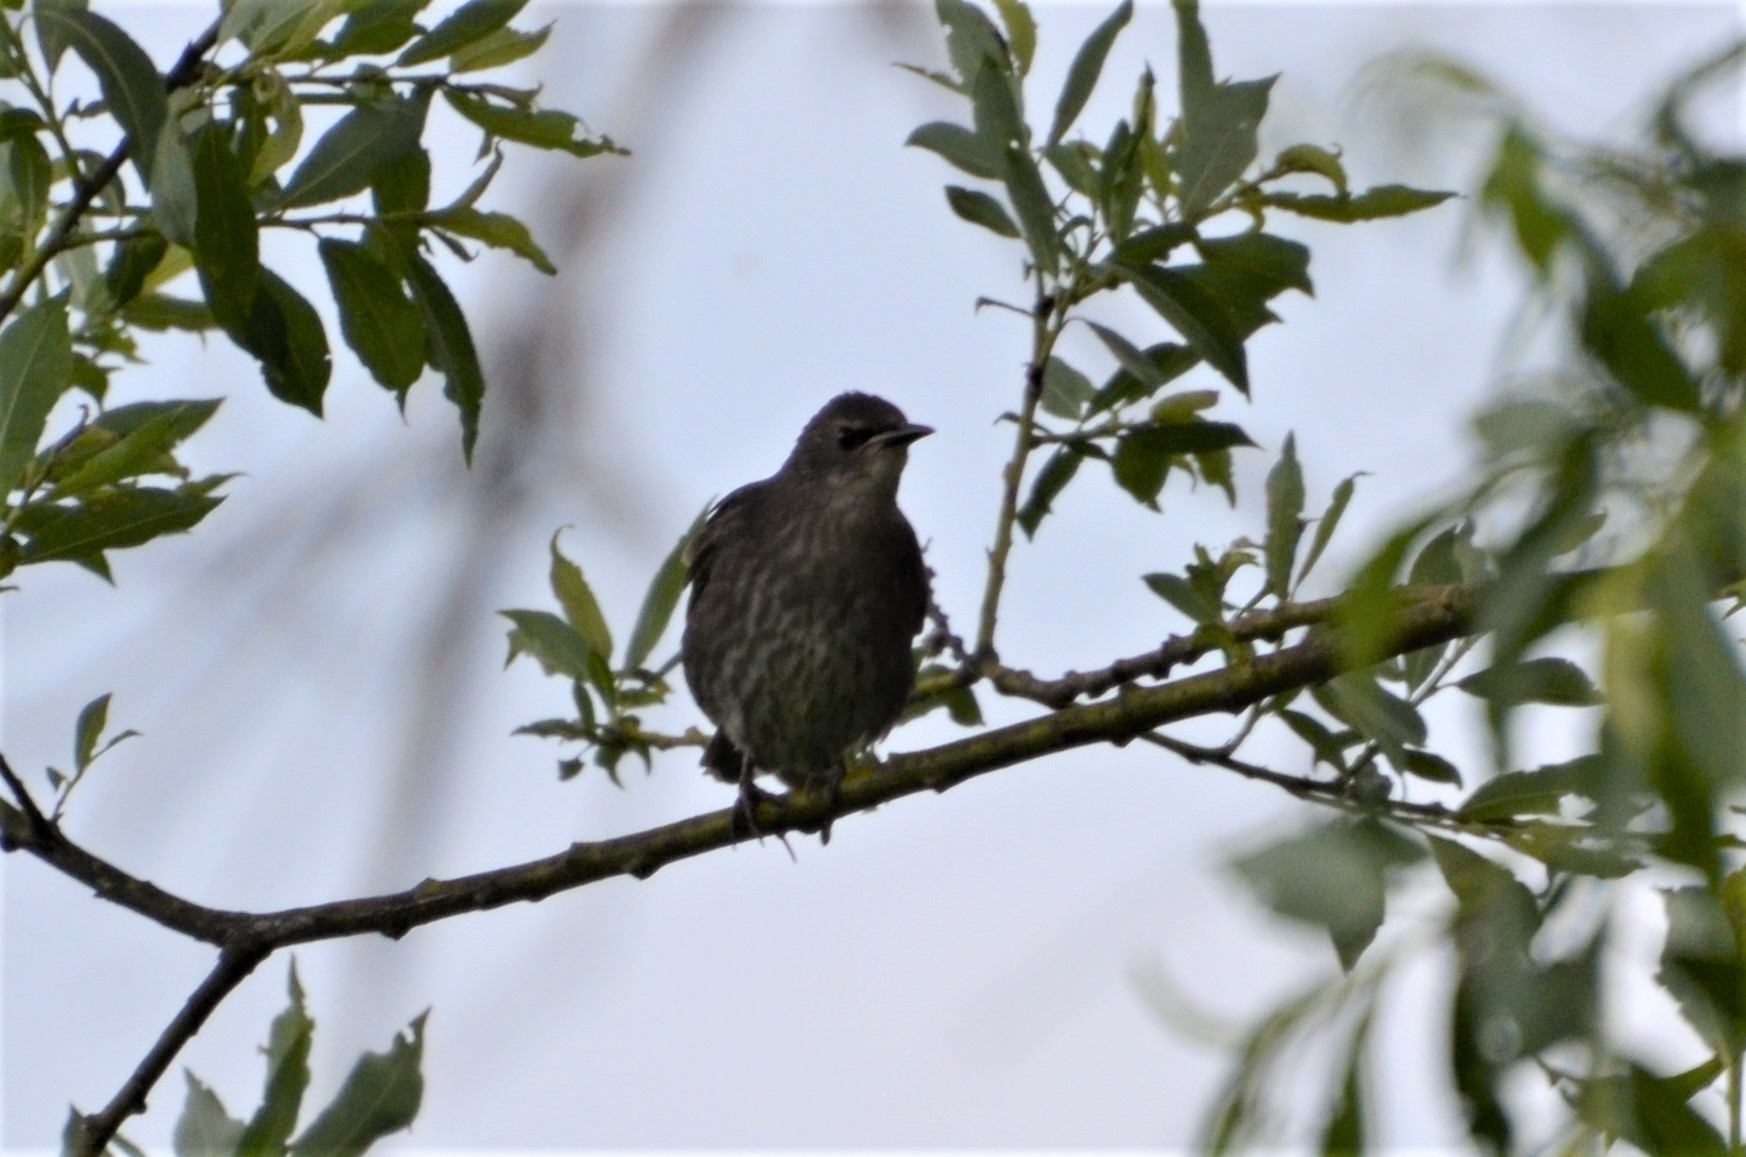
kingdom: Animalia
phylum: Chordata
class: Aves
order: Passeriformes
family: Sturnidae
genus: Sturnus
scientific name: Sturnus vulgaris
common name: Common starling
